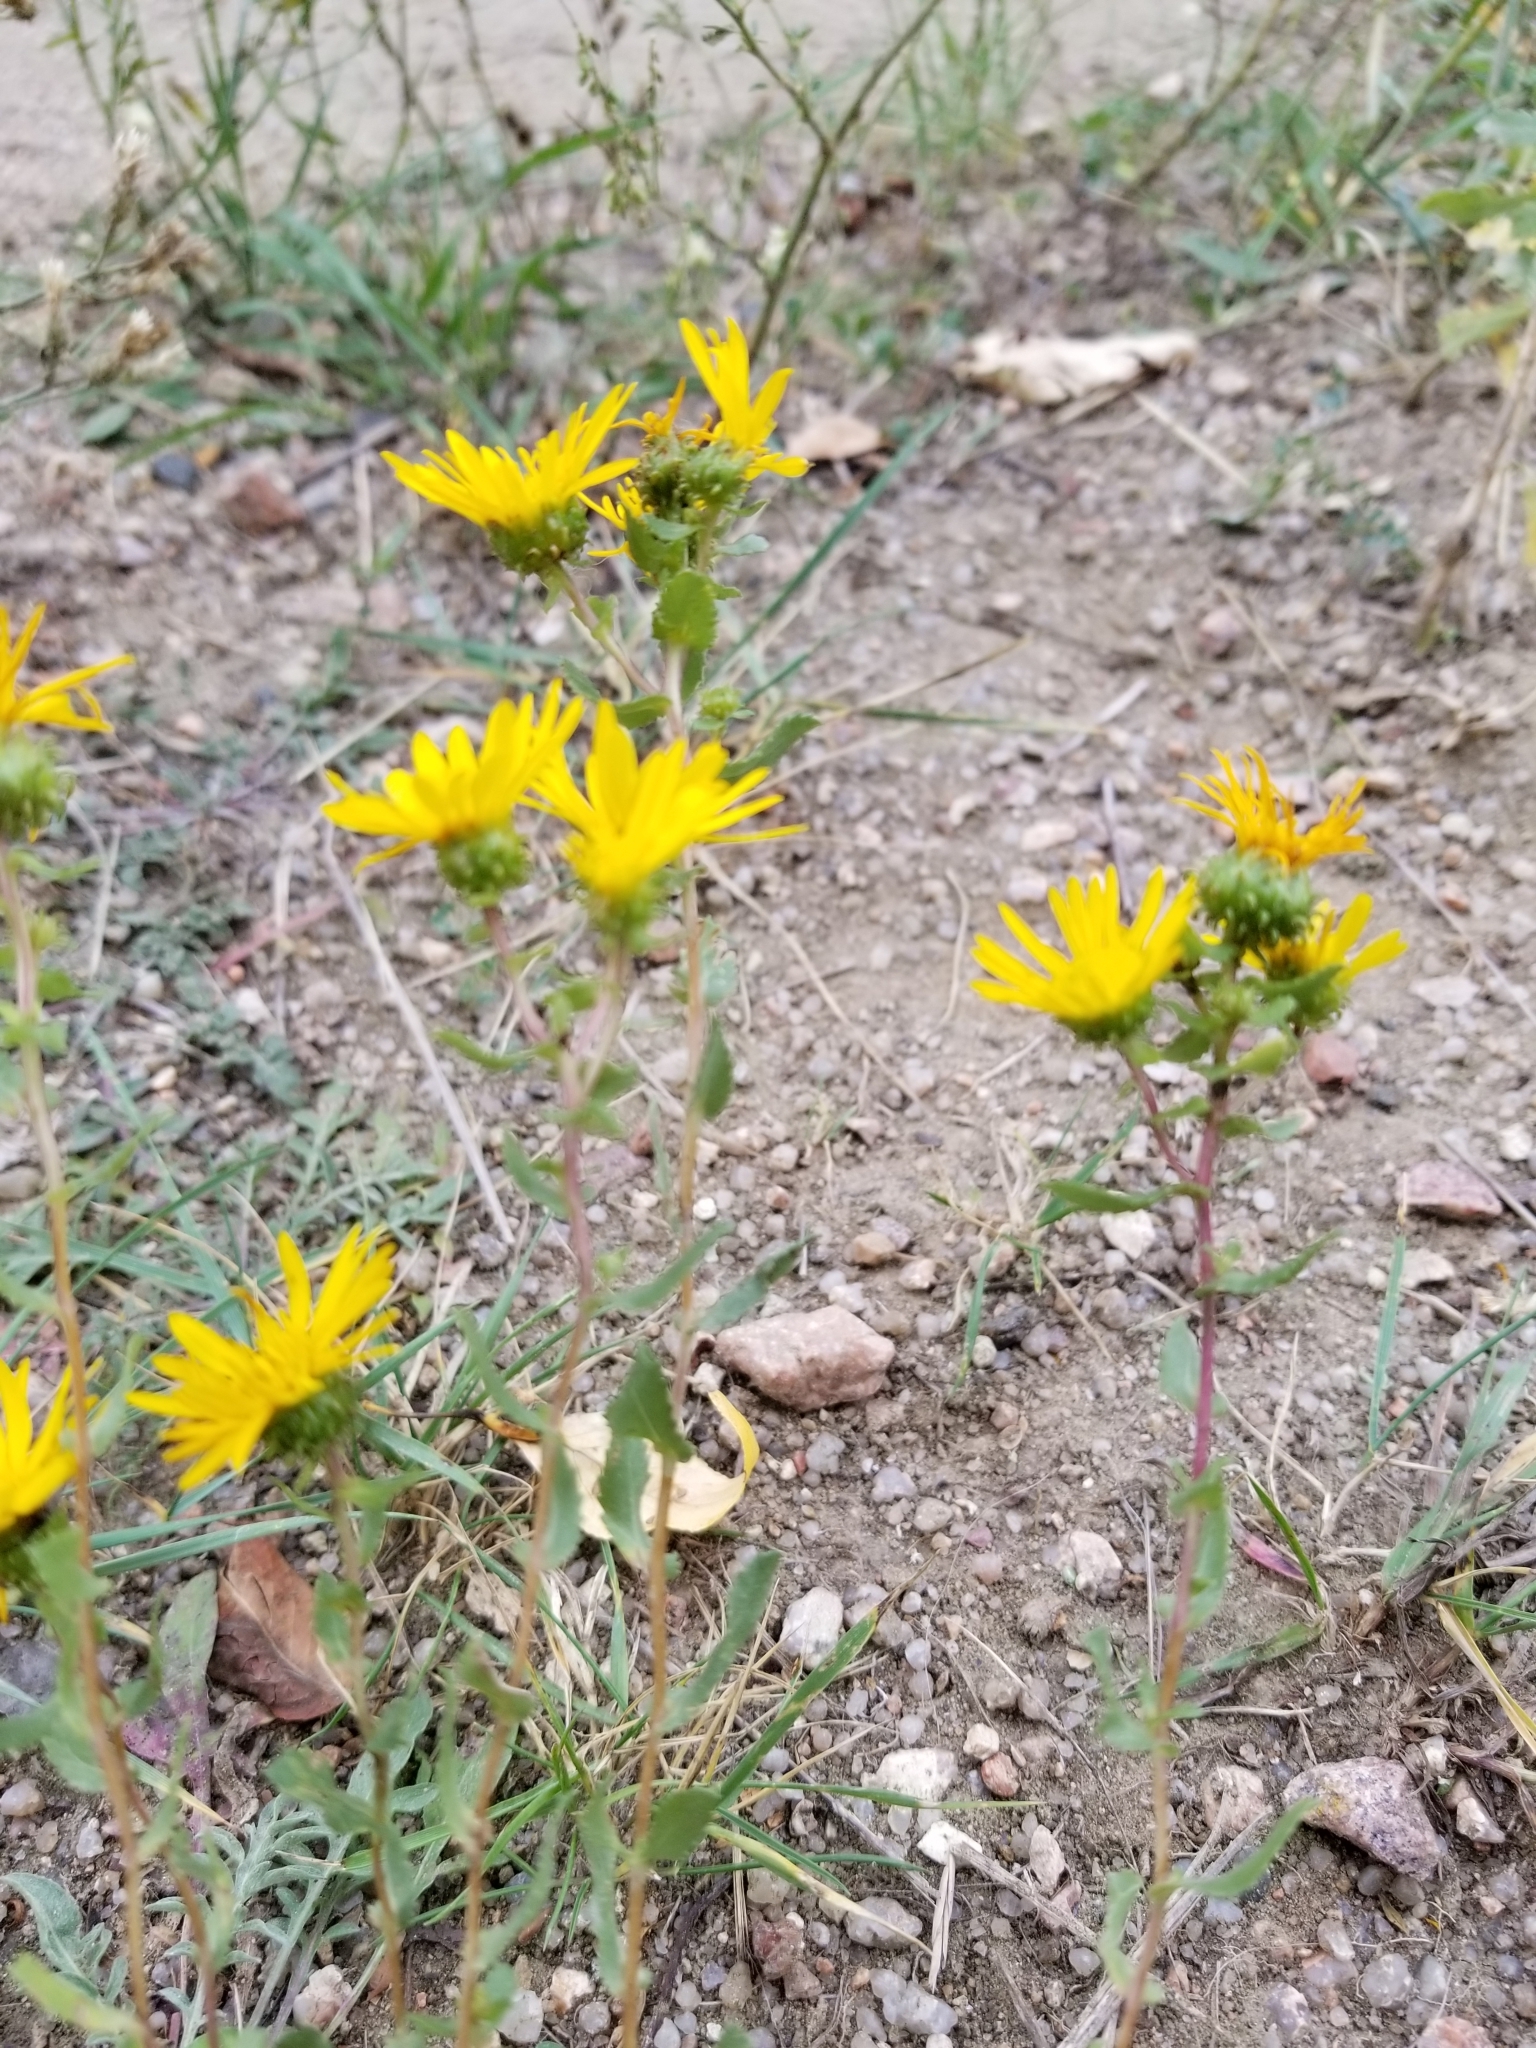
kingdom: Plantae
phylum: Tracheophyta
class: Magnoliopsida
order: Asterales
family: Asteraceae
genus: Grindelia
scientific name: Grindelia squarrosa
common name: Curly-cup gumweed
